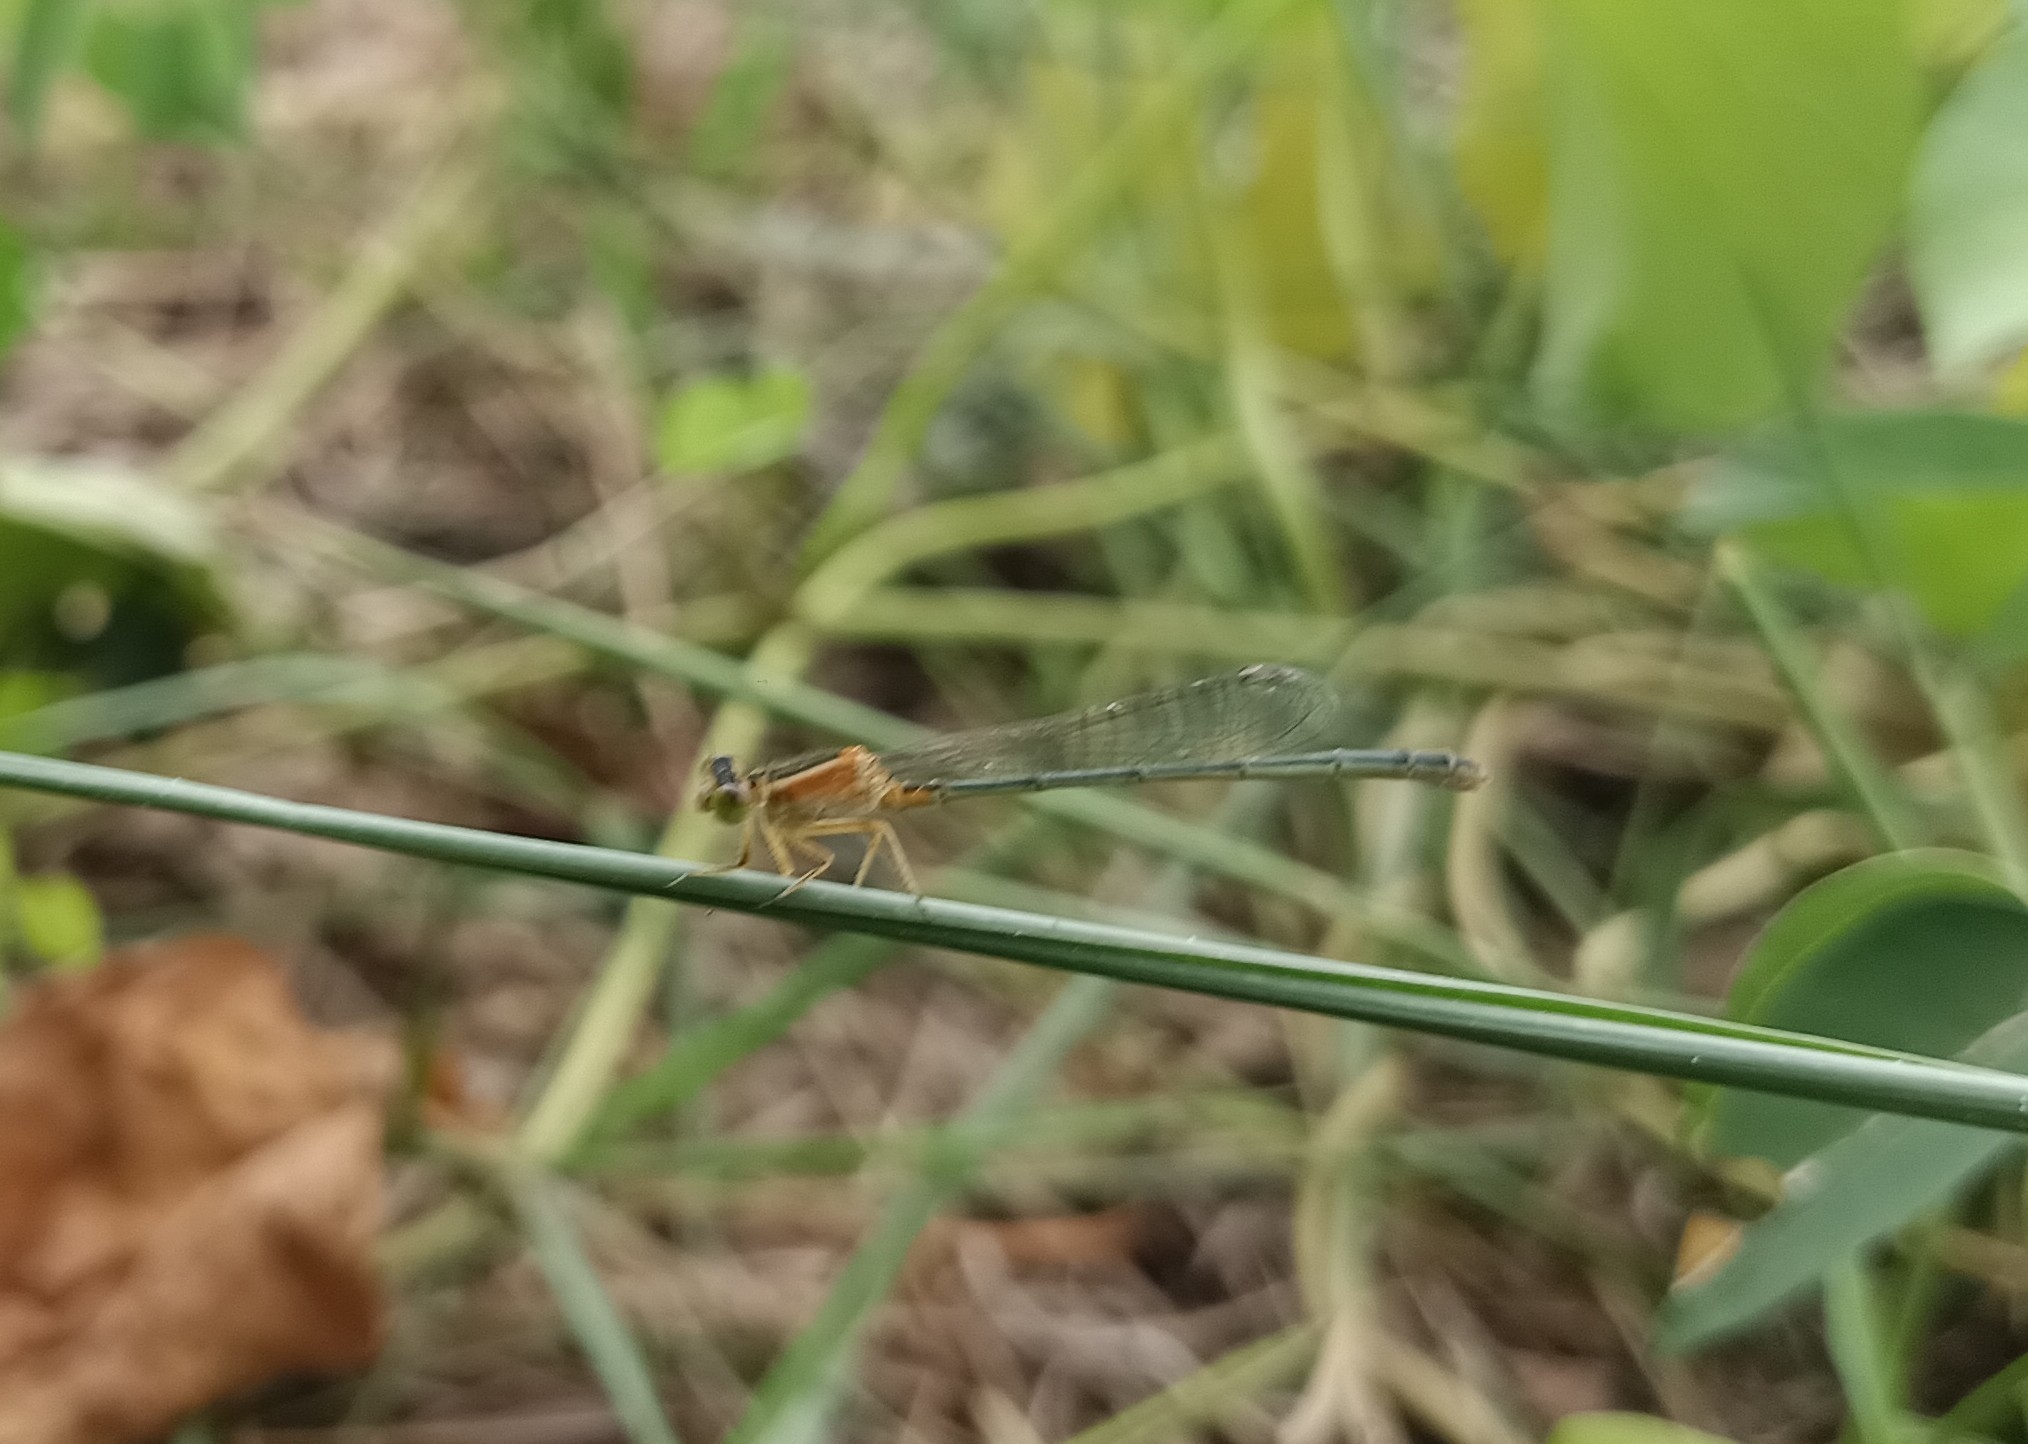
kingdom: Animalia
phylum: Arthropoda
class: Insecta
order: Odonata
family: Coenagrionidae
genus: Ischnura
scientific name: Ischnura senegalensis
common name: Tropical bluetail
